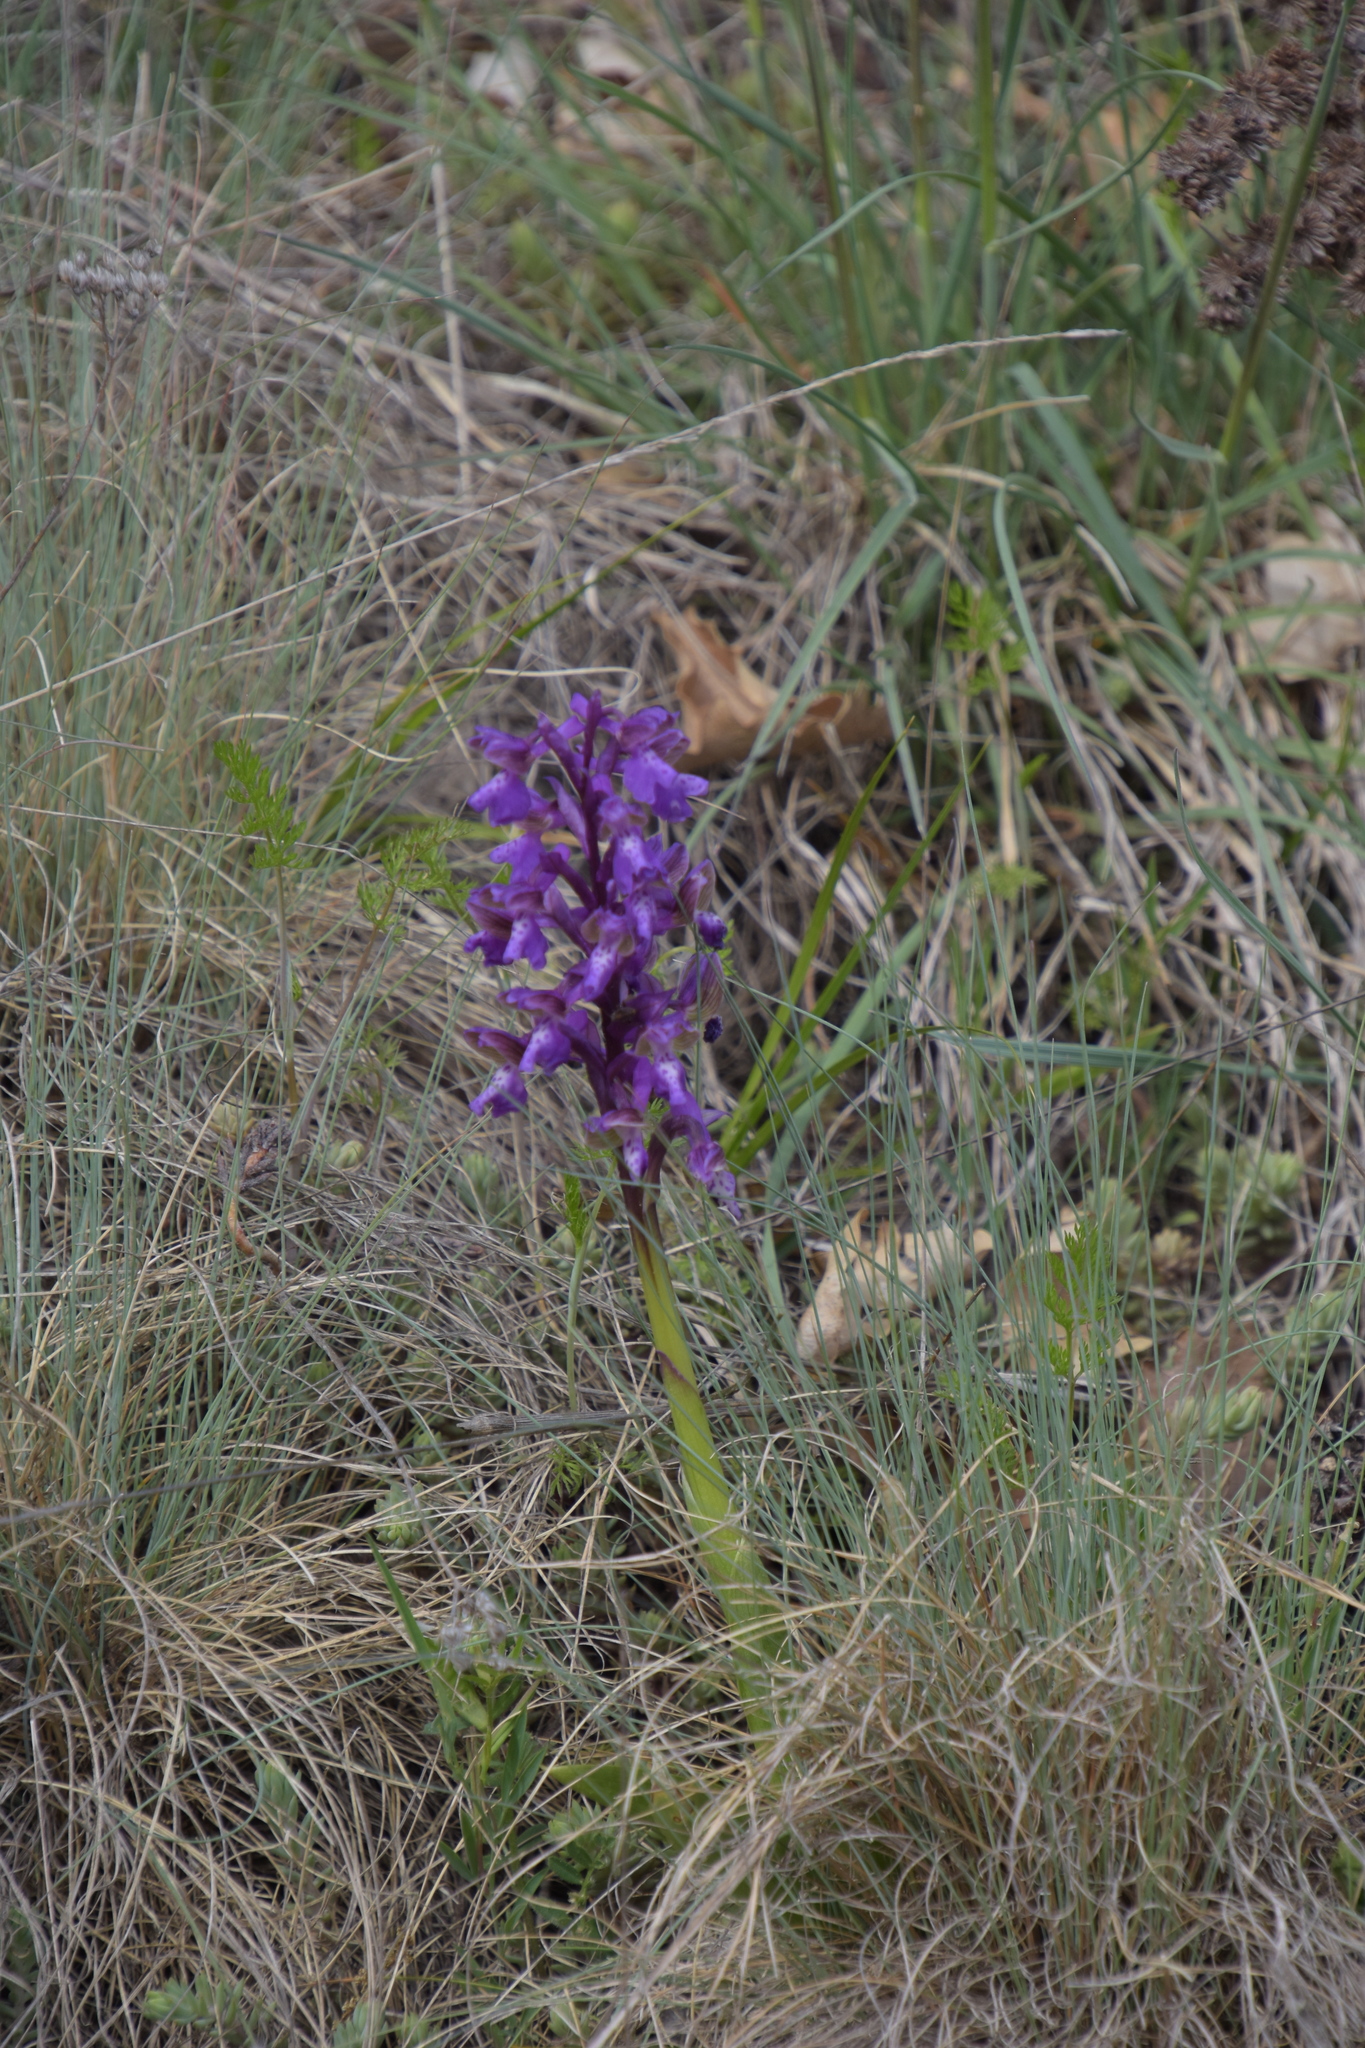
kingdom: Plantae
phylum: Tracheophyta
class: Liliopsida
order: Asparagales
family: Orchidaceae
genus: Anacamptis
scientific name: Anacamptis morio
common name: Green-winged orchid
